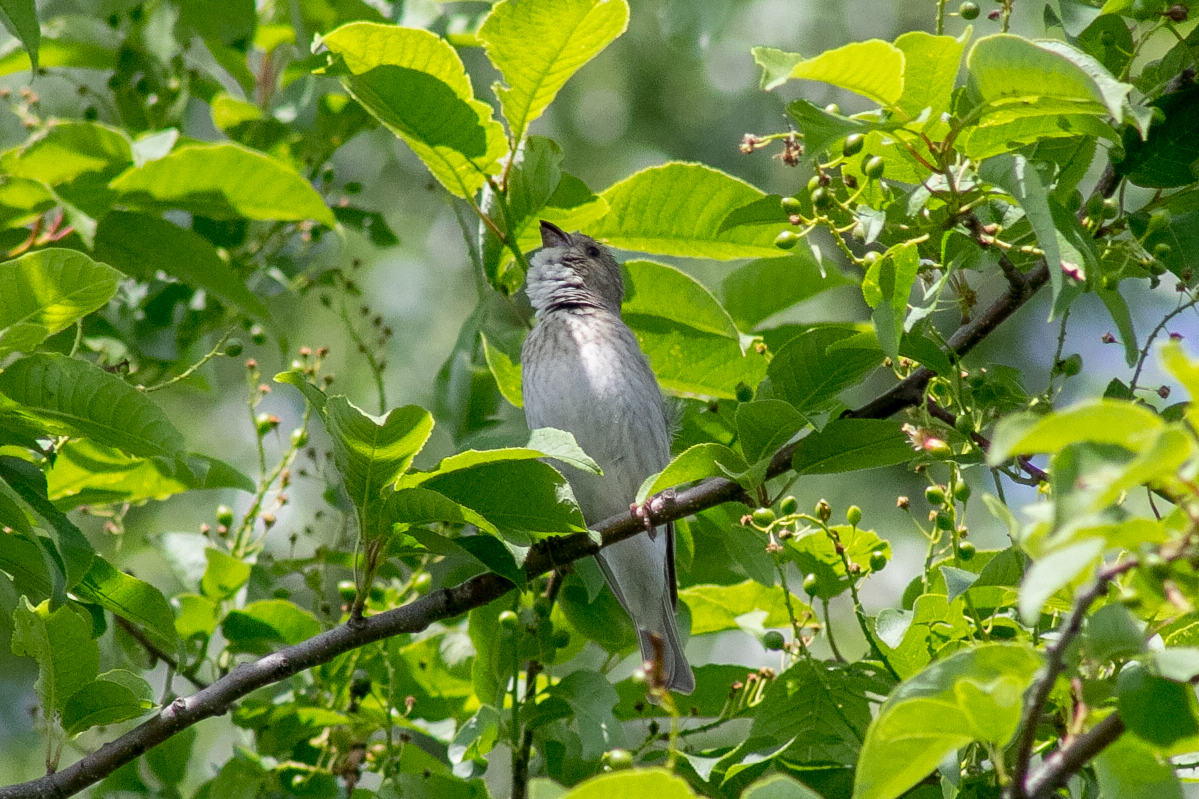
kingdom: Animalia
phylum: Chordata
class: Aves
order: Passeriformes
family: Fringillidae
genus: Carpodacus
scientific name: Carpodacus erythrinus
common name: Common rosefinch
